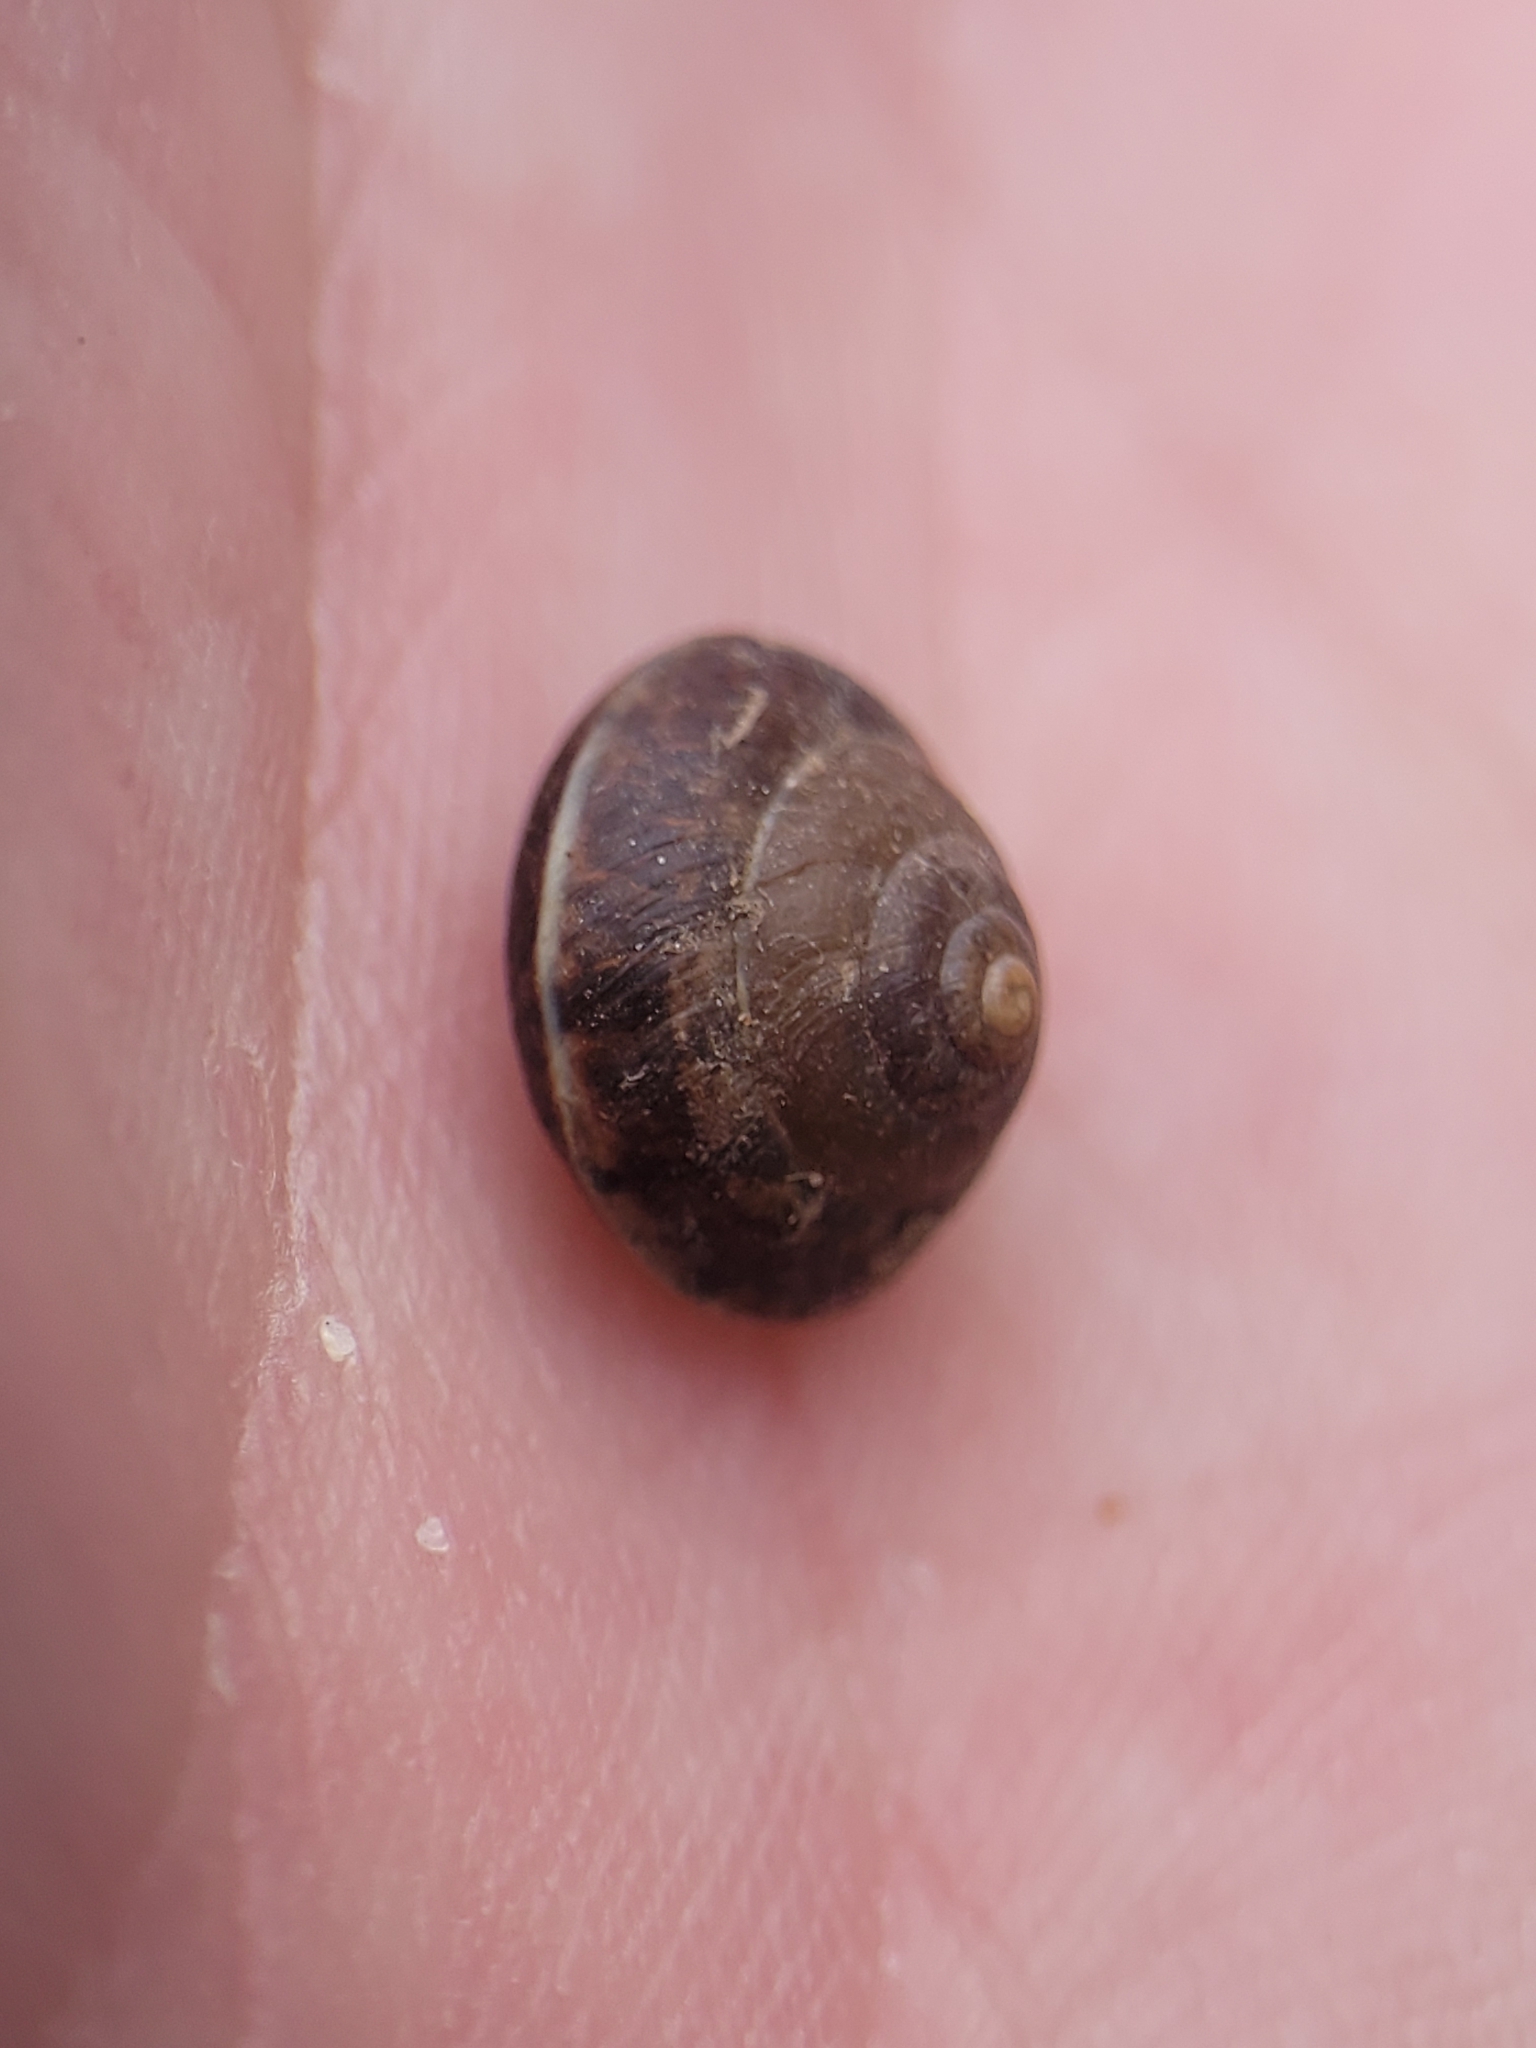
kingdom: Animalia
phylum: Mollusca
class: Gastropoda
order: Stylommatophora
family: Hygromiidae
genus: Hygromia
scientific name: Hygromia cinctella
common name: Girdled snail
